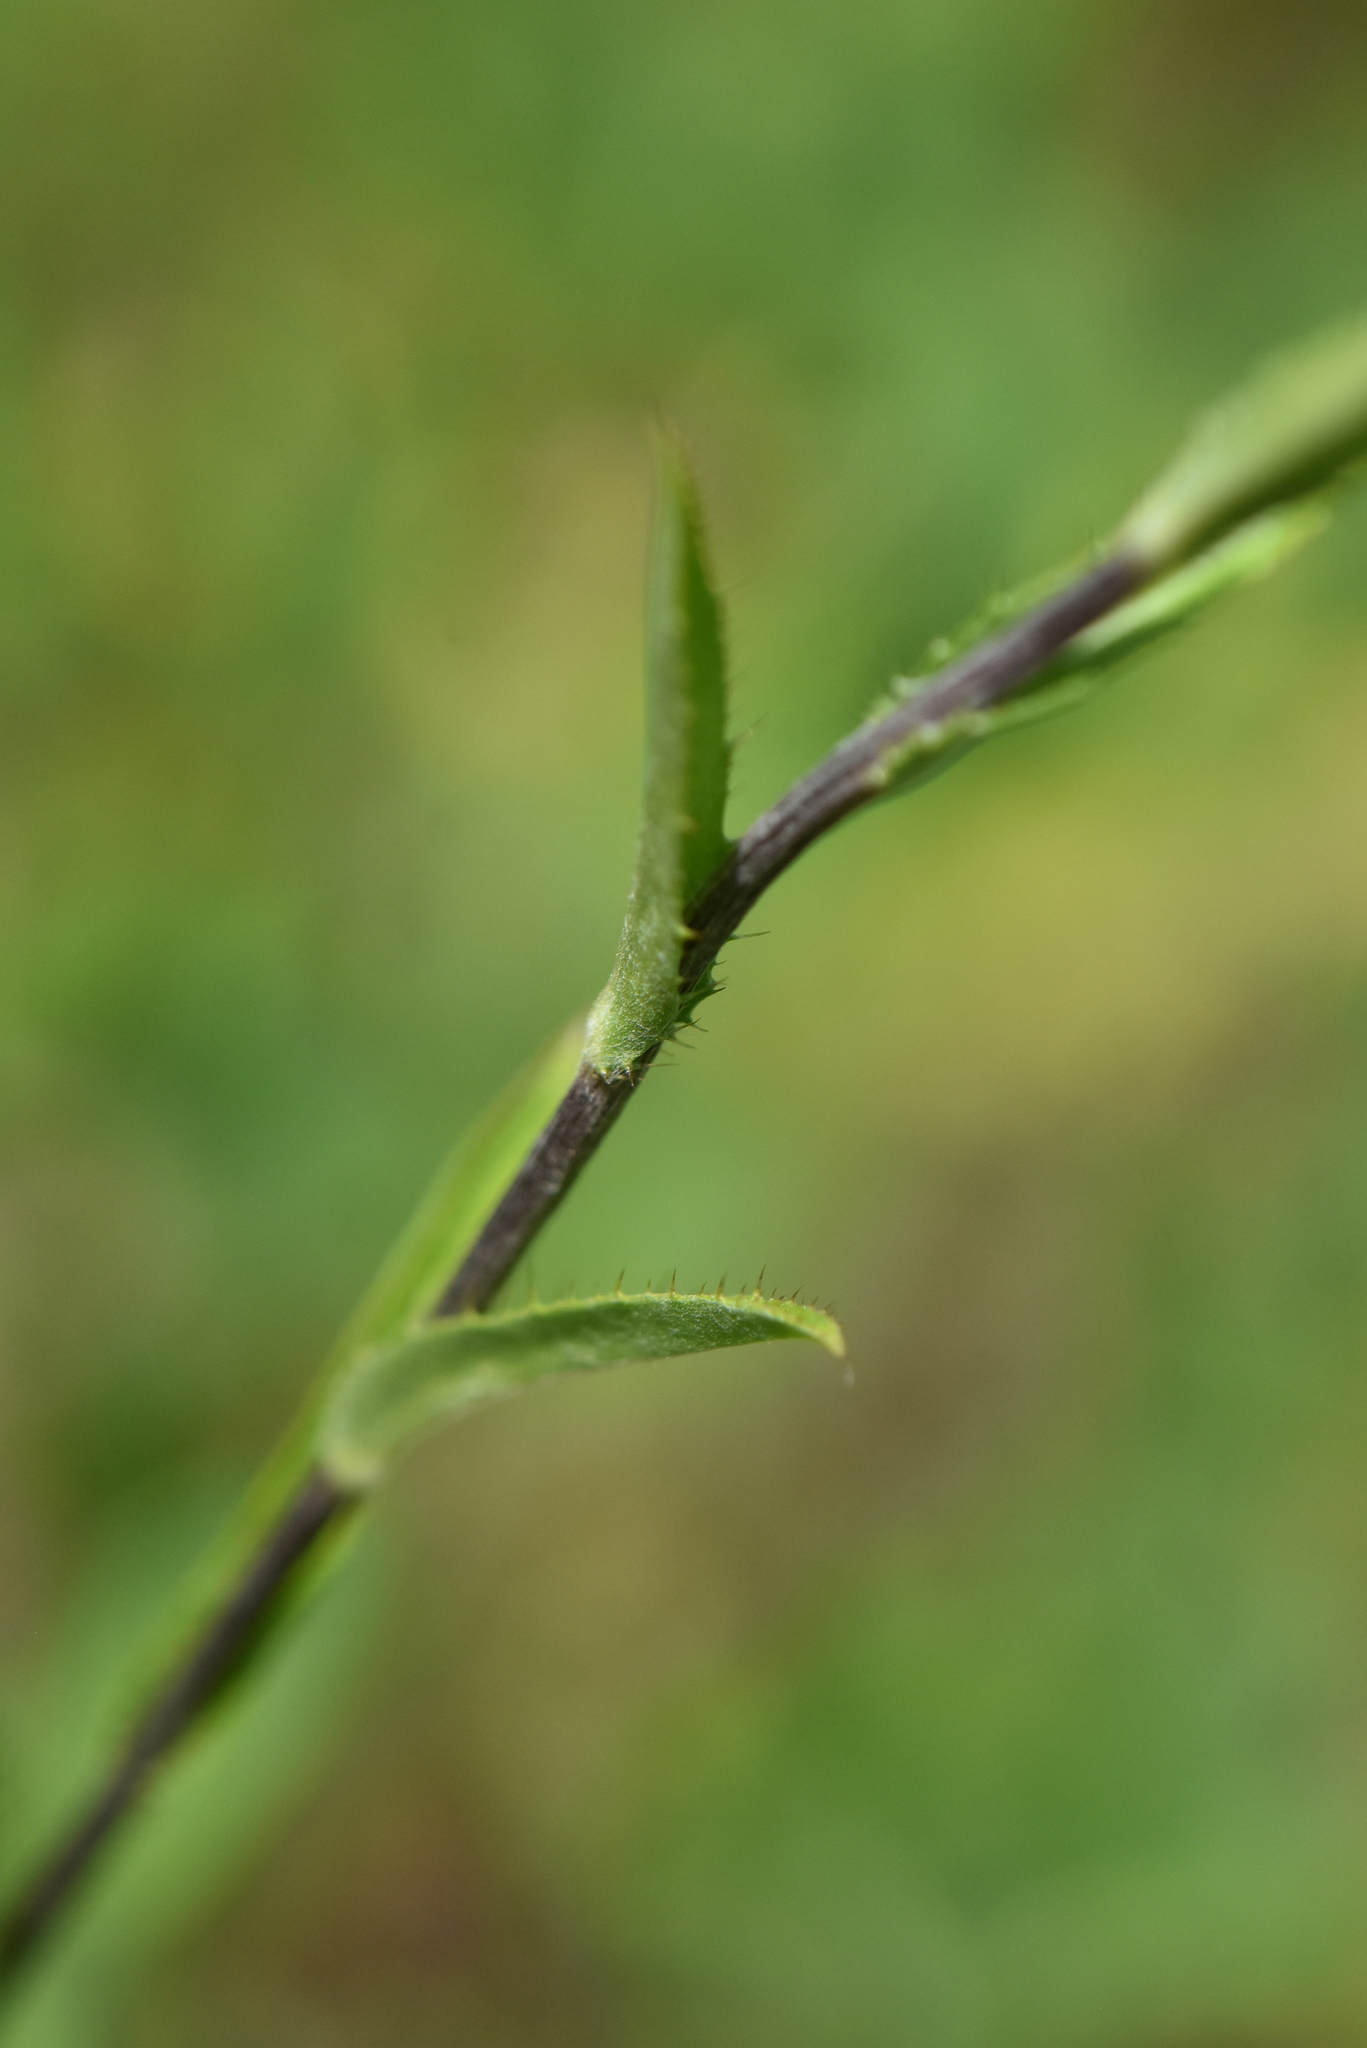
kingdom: Plantae
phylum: Tracheophyta
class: Magnoliopsida
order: Asterales
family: Asteraceae
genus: Carlina
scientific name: Carlina biebersteinii
